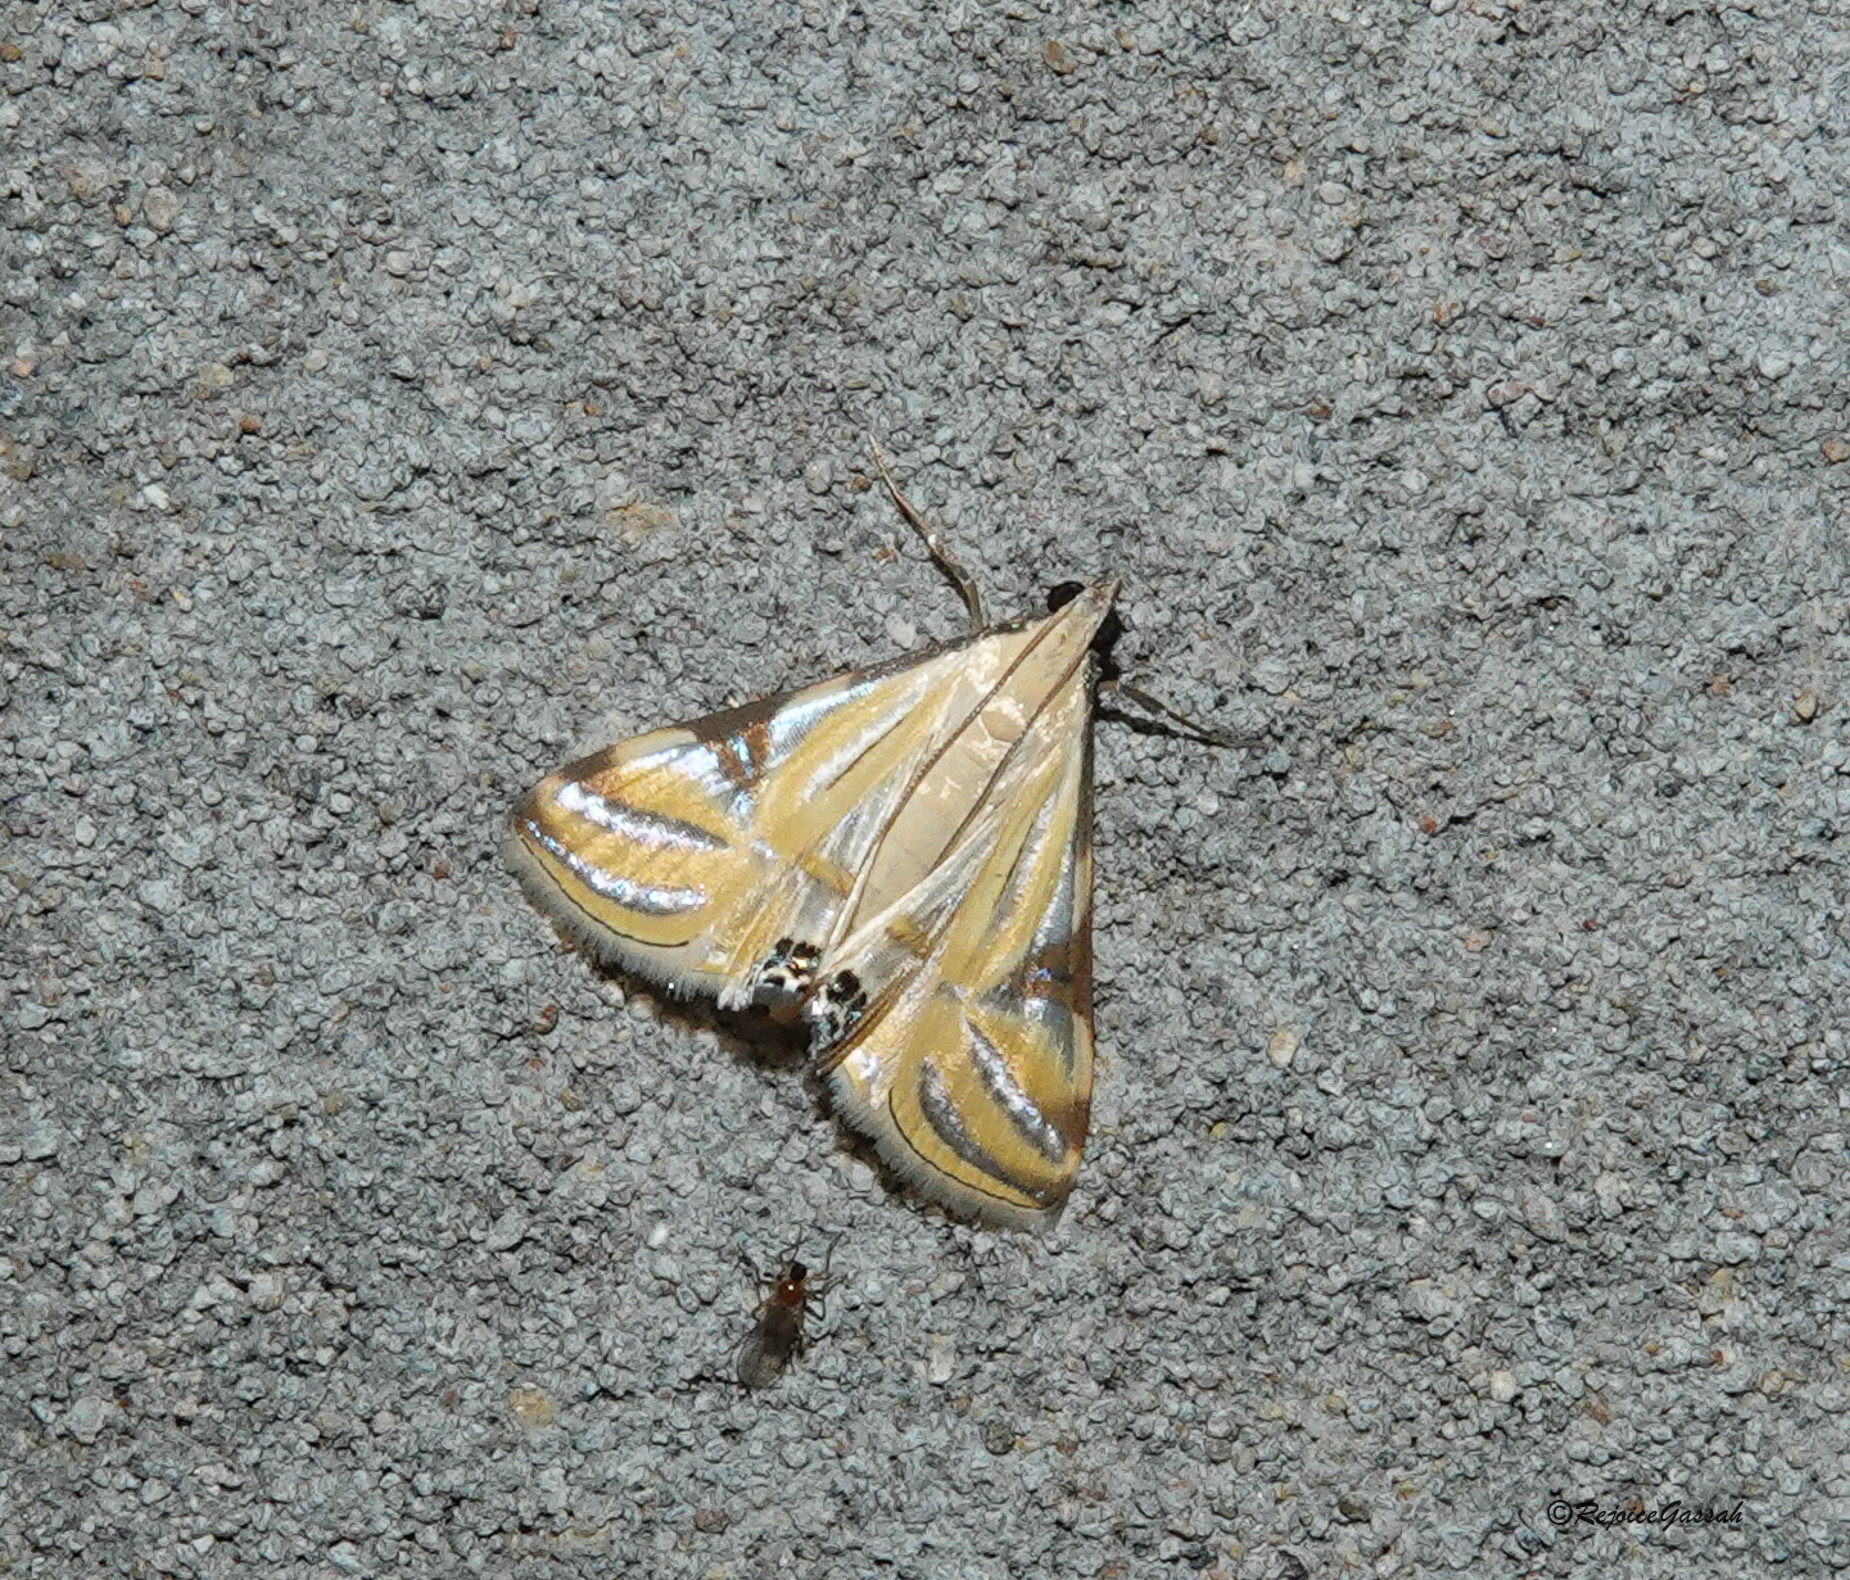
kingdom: Animalia
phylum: Arthropoda
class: Insecta
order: Lepidoptera
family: Crambidae
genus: Talanga
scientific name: Talanga sexpunctalis
